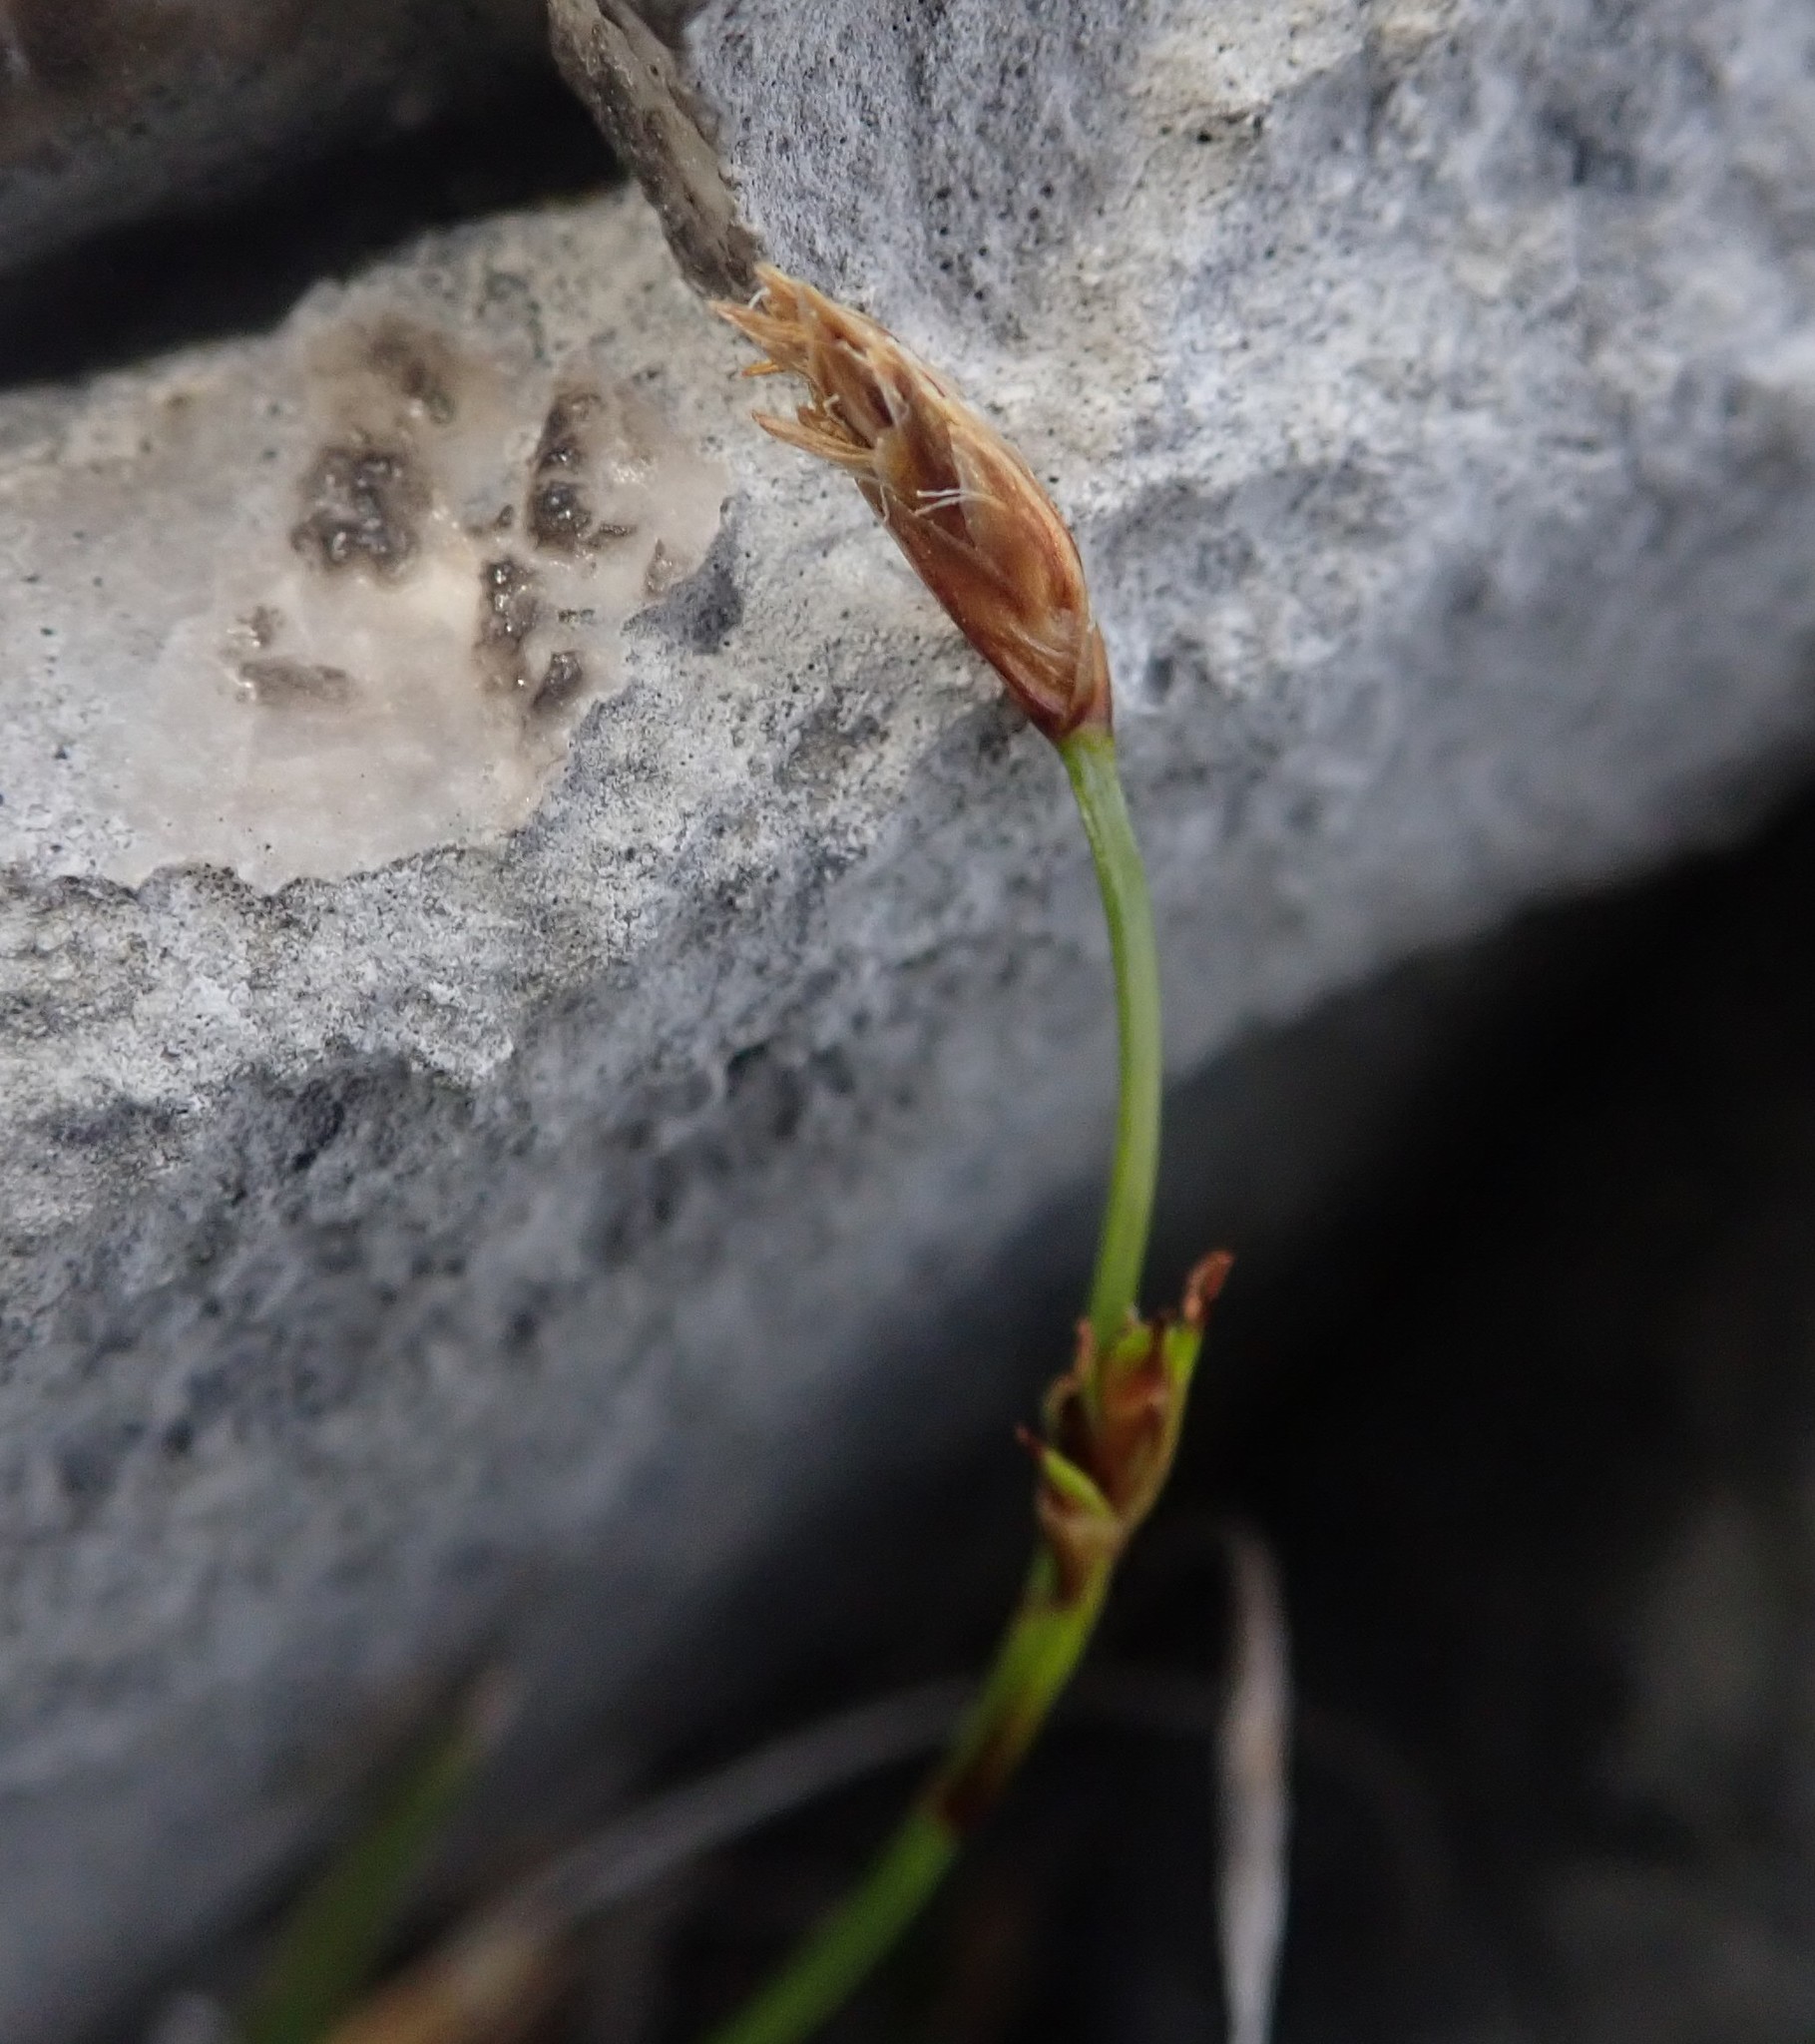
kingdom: Plantae
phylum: Tracheophyta
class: Liliopsida
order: Poales
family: Cyperaceae
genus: Carex
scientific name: Carex firma
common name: Dwarf pillow sedge
